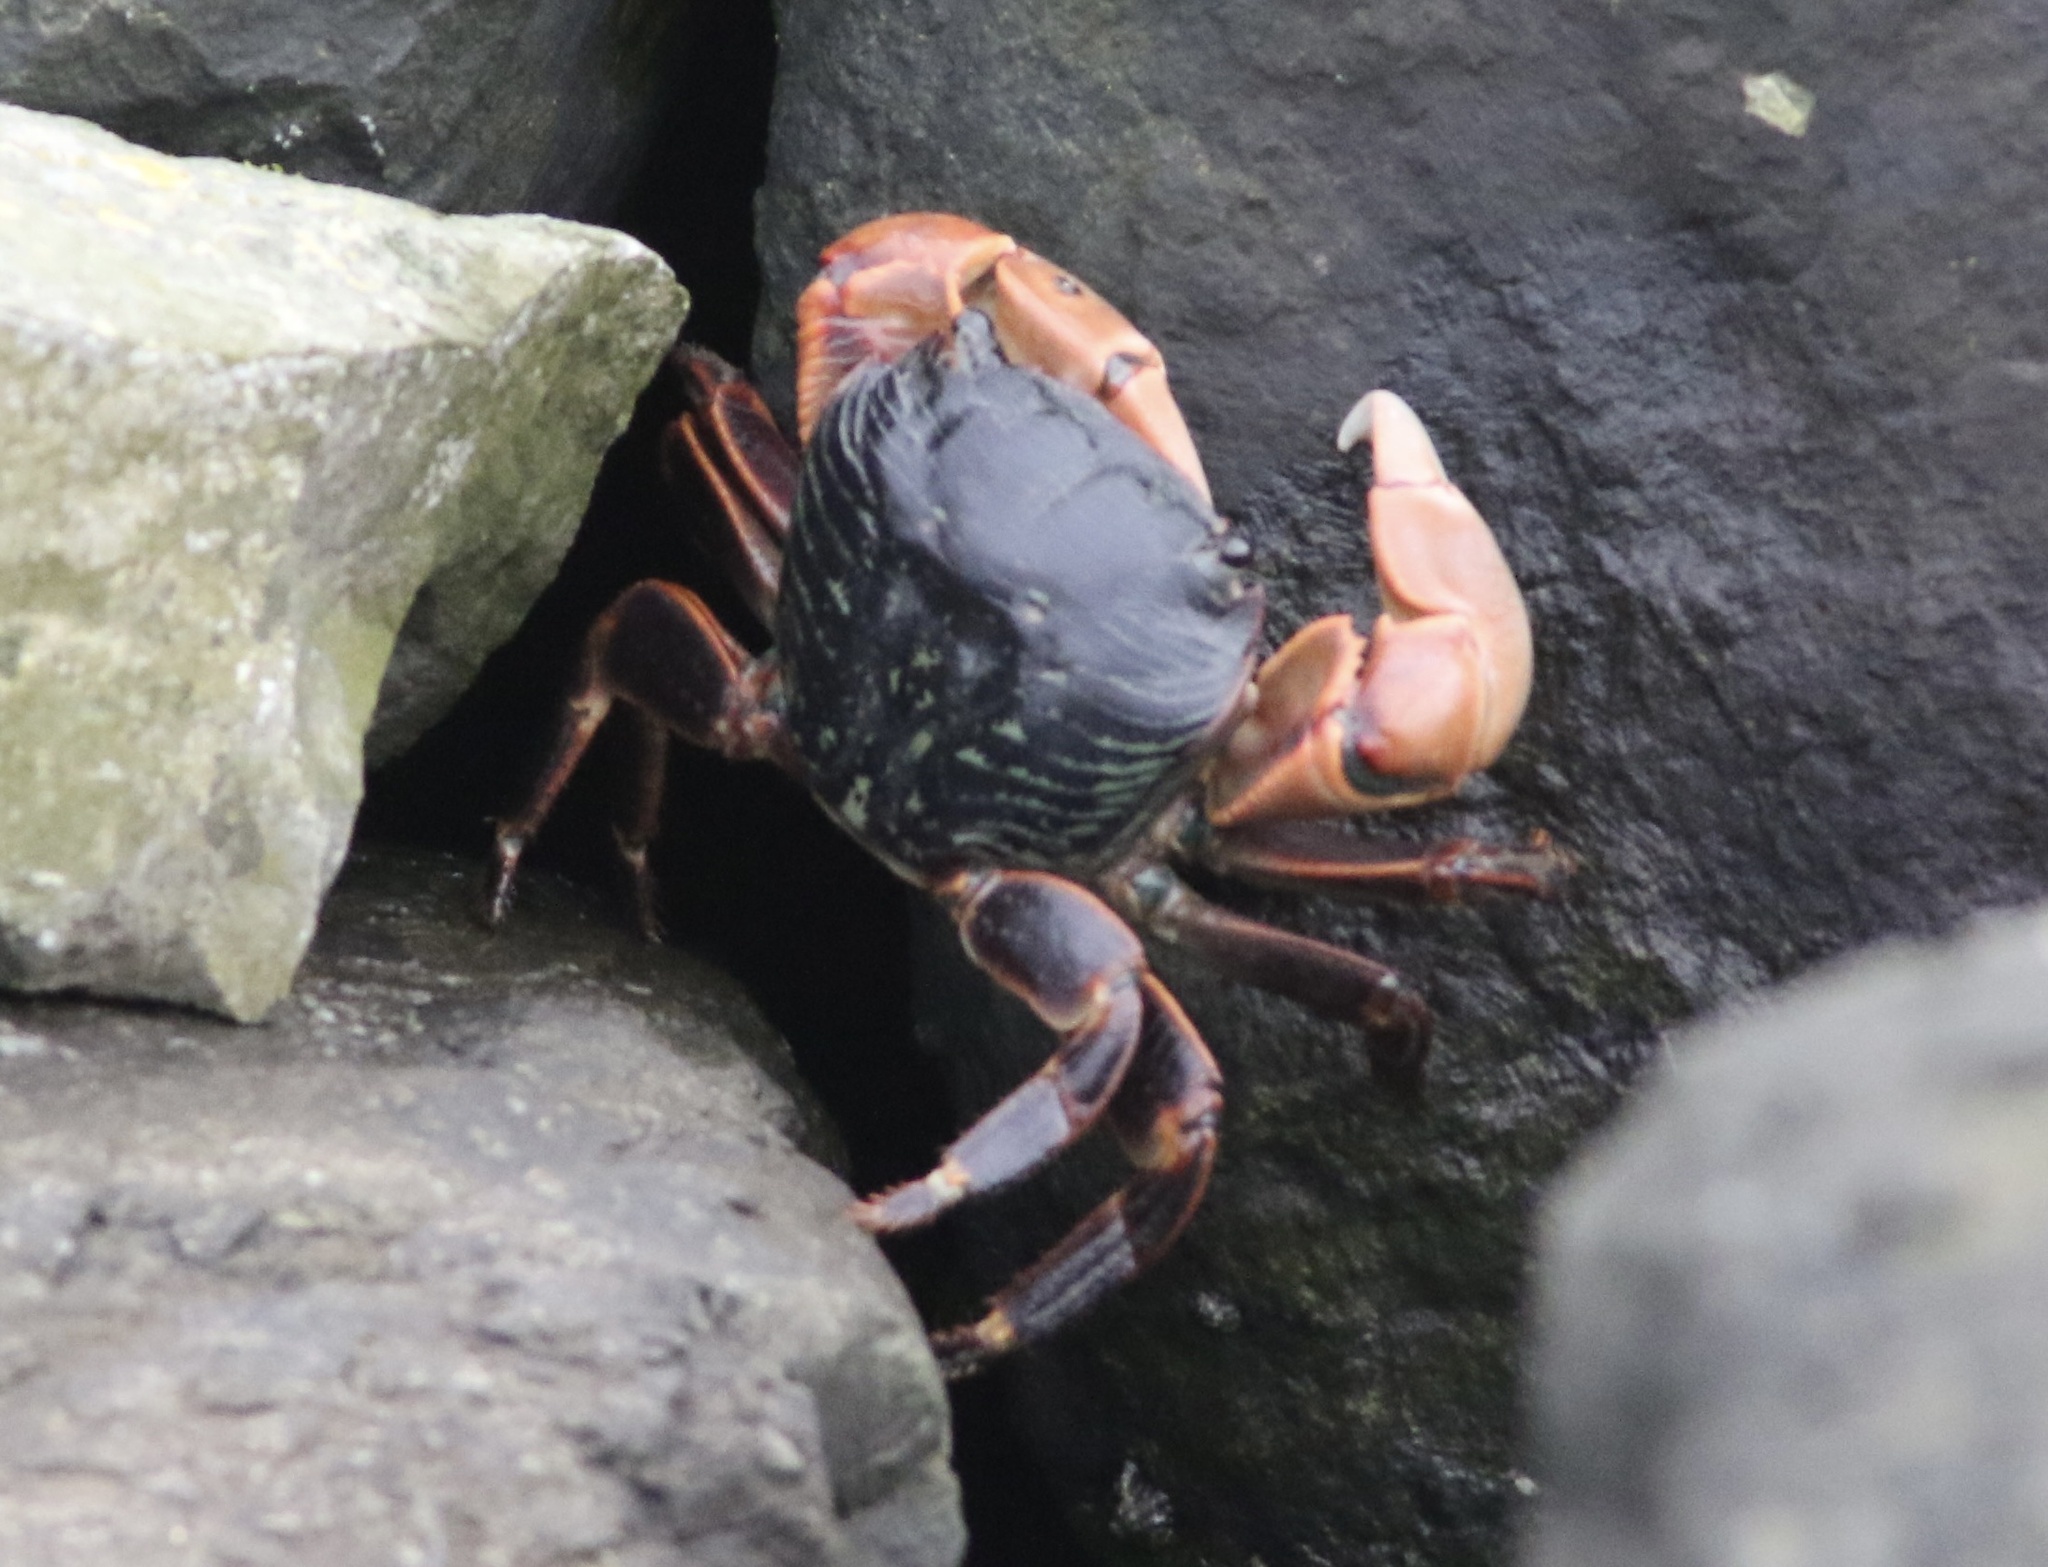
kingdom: Animalia
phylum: Arthropoda
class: Malacostraca
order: Decapoda
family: Grapsidae
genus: Pachygrapsus
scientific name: Pachygrapsus crassipes
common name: Striped shore crab
